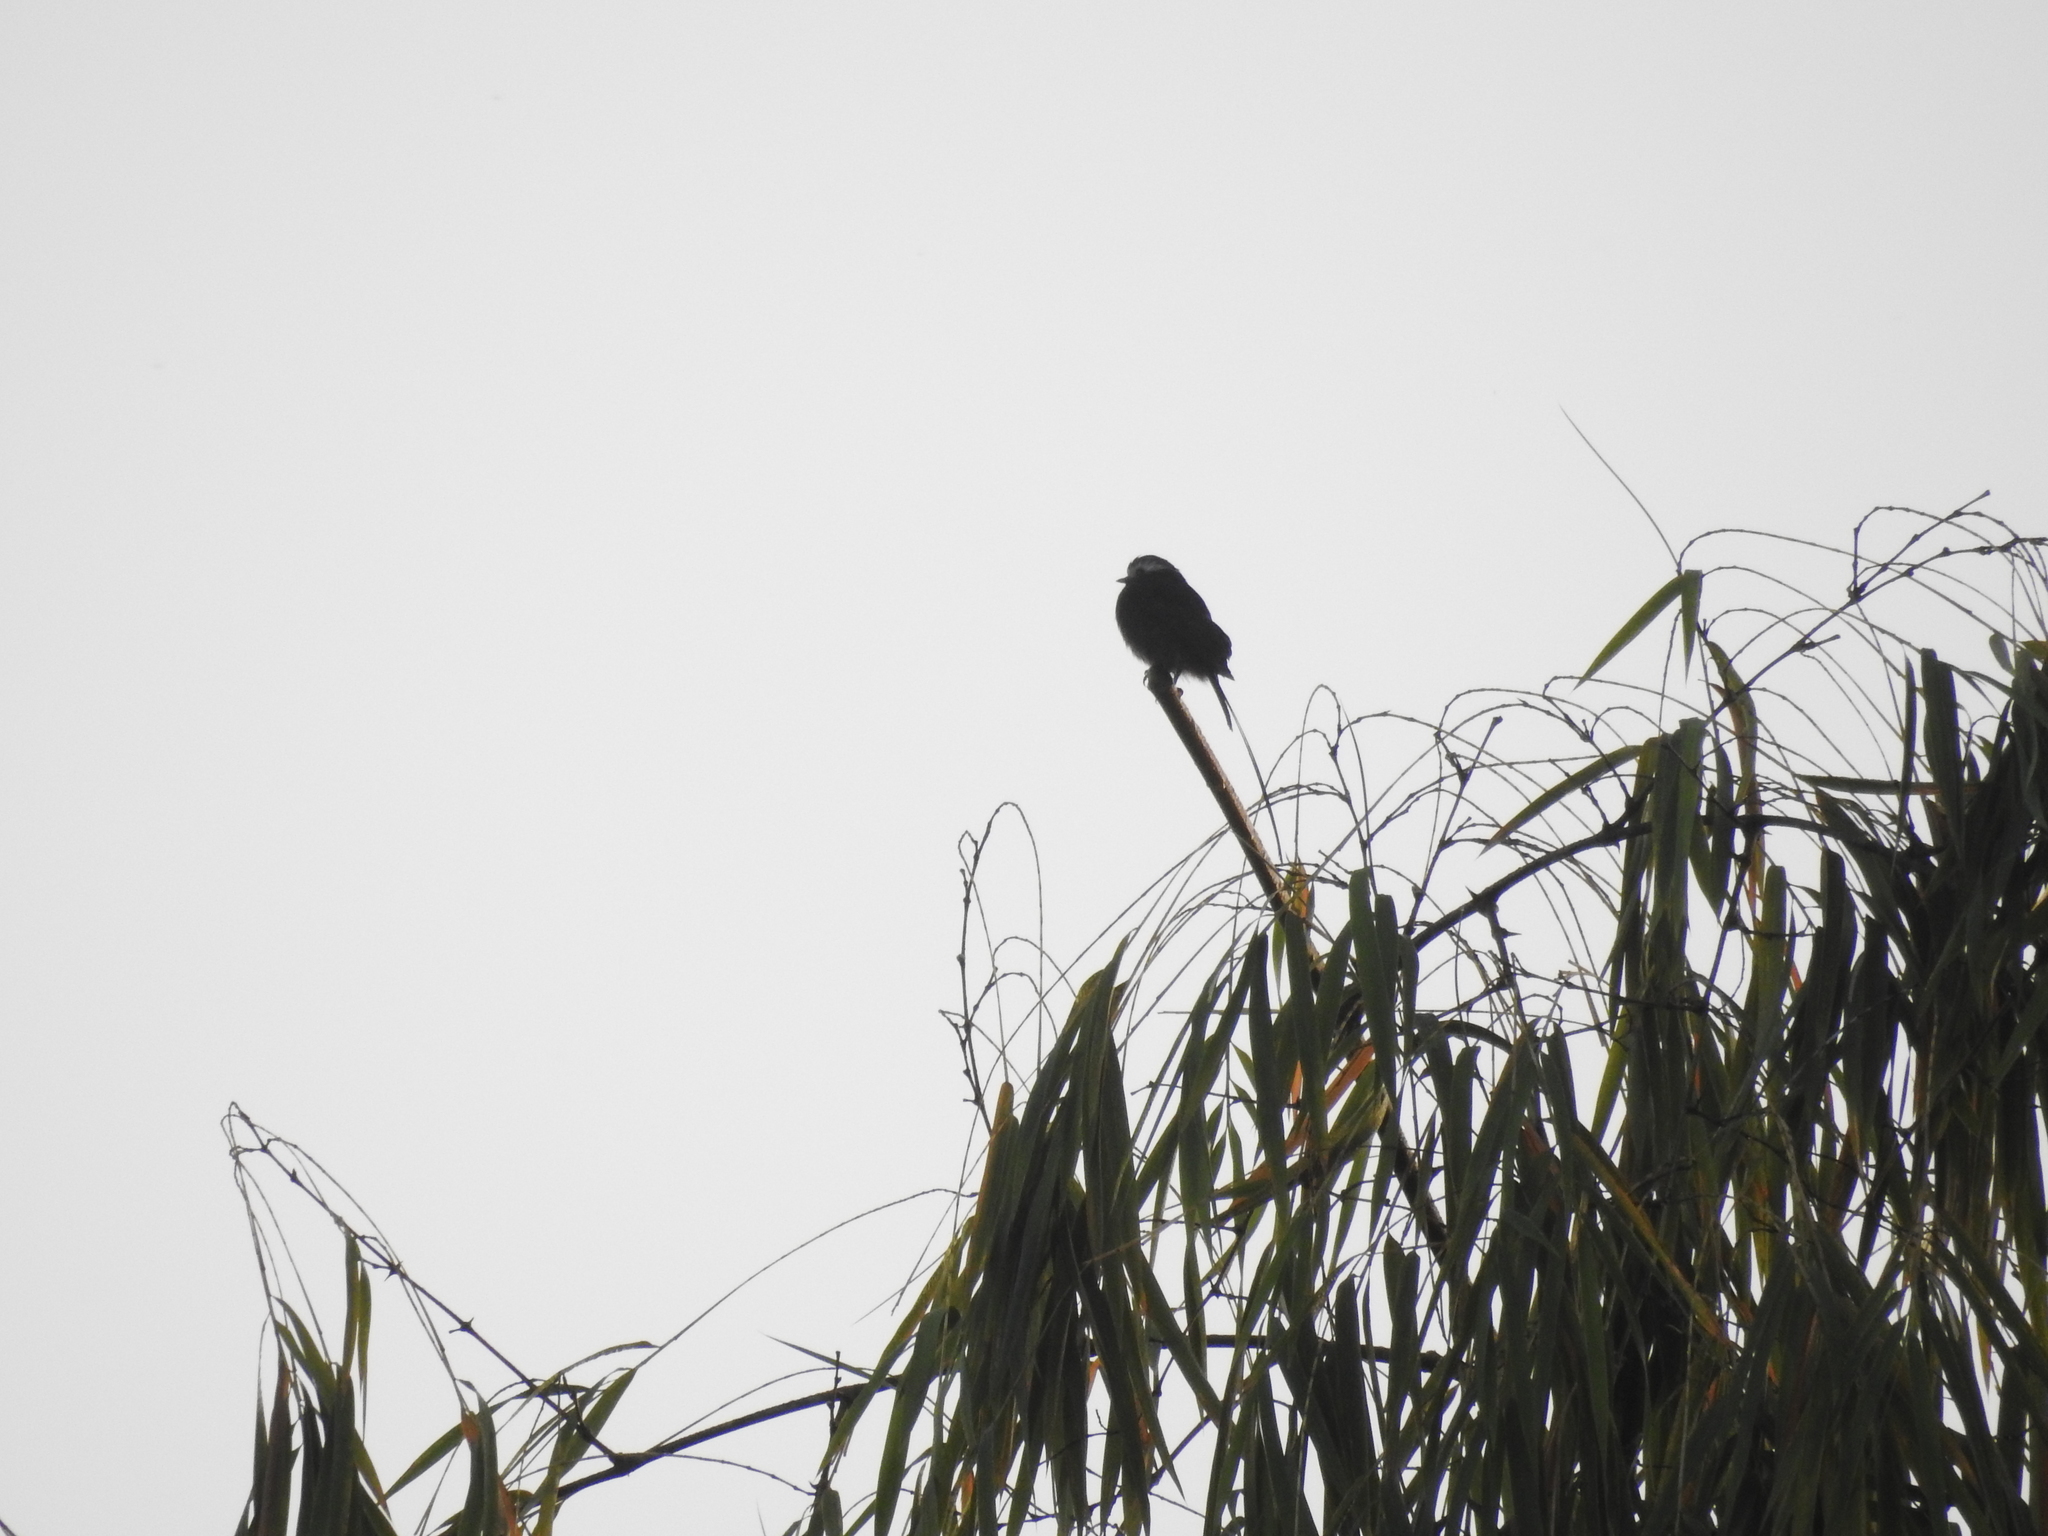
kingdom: Animalia
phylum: Chordata
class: Aves
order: Passeriformes
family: Tyrannidae
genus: Colonia
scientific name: Colonia colonus
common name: Long-tailed tyrant
